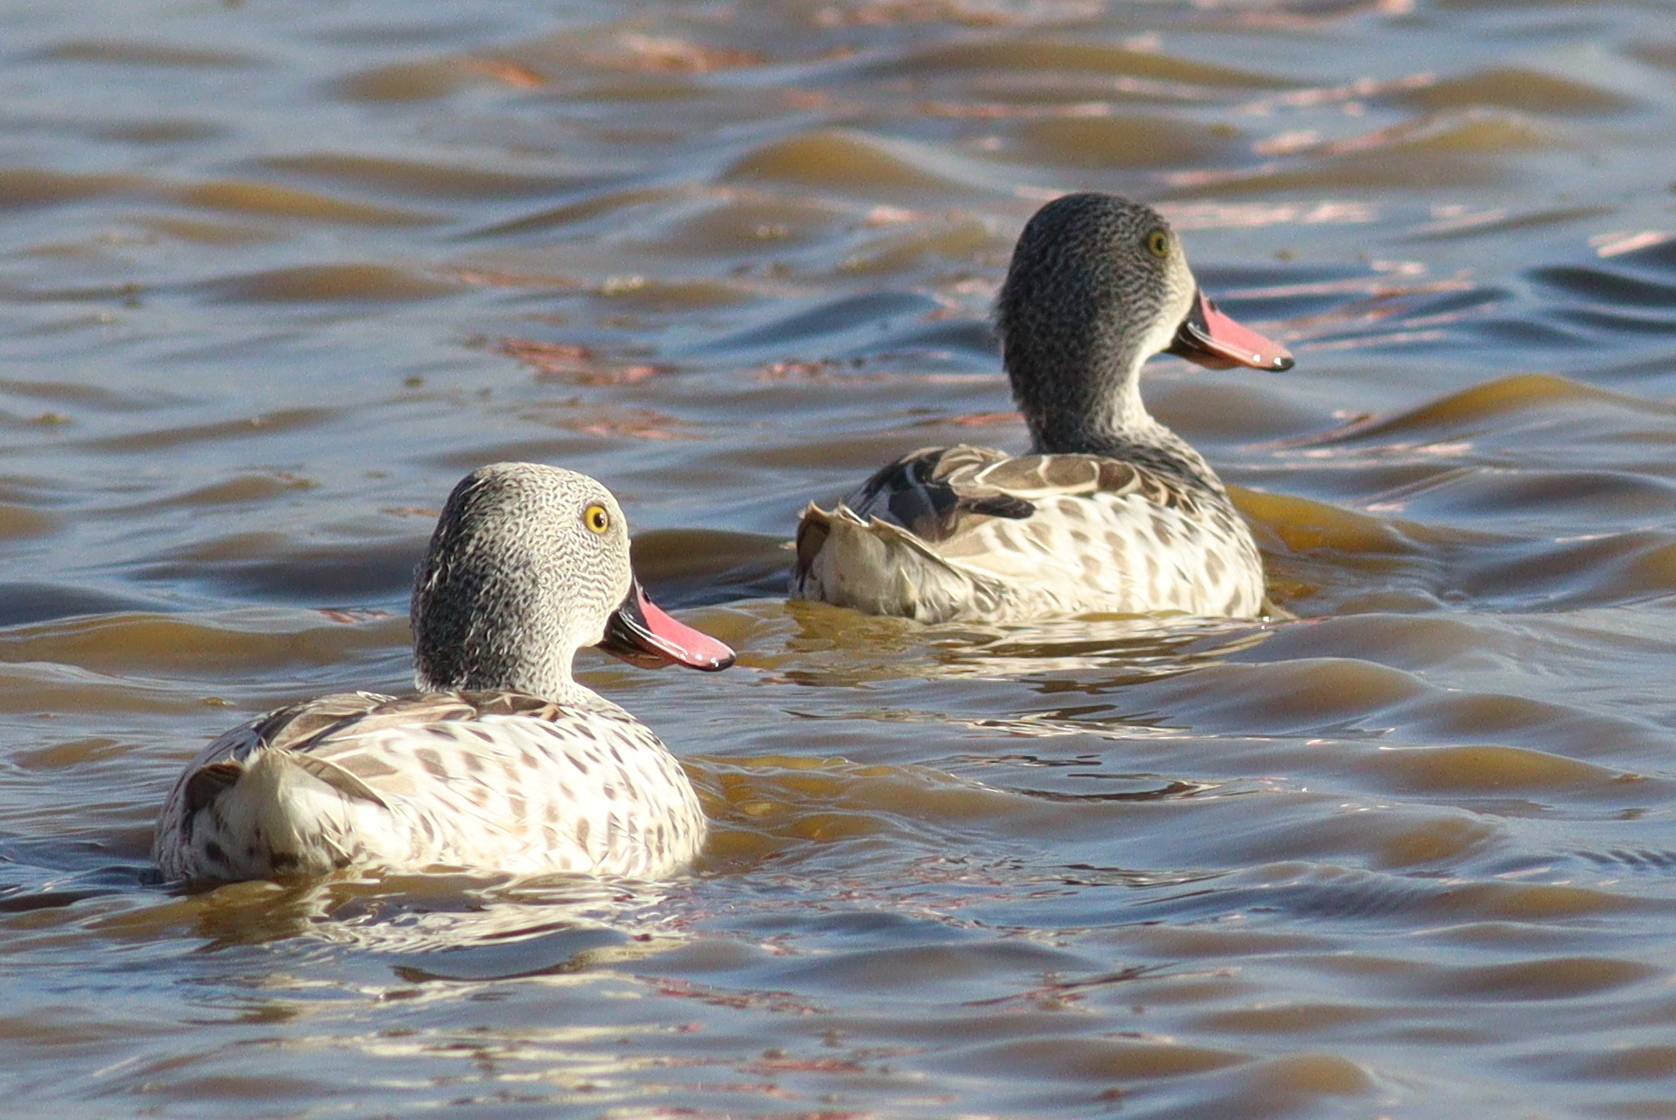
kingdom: Animalia
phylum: Chordata
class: Aves
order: Anseriformes
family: Anatidae
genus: Anas
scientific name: Anas capensis
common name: Cape teal
